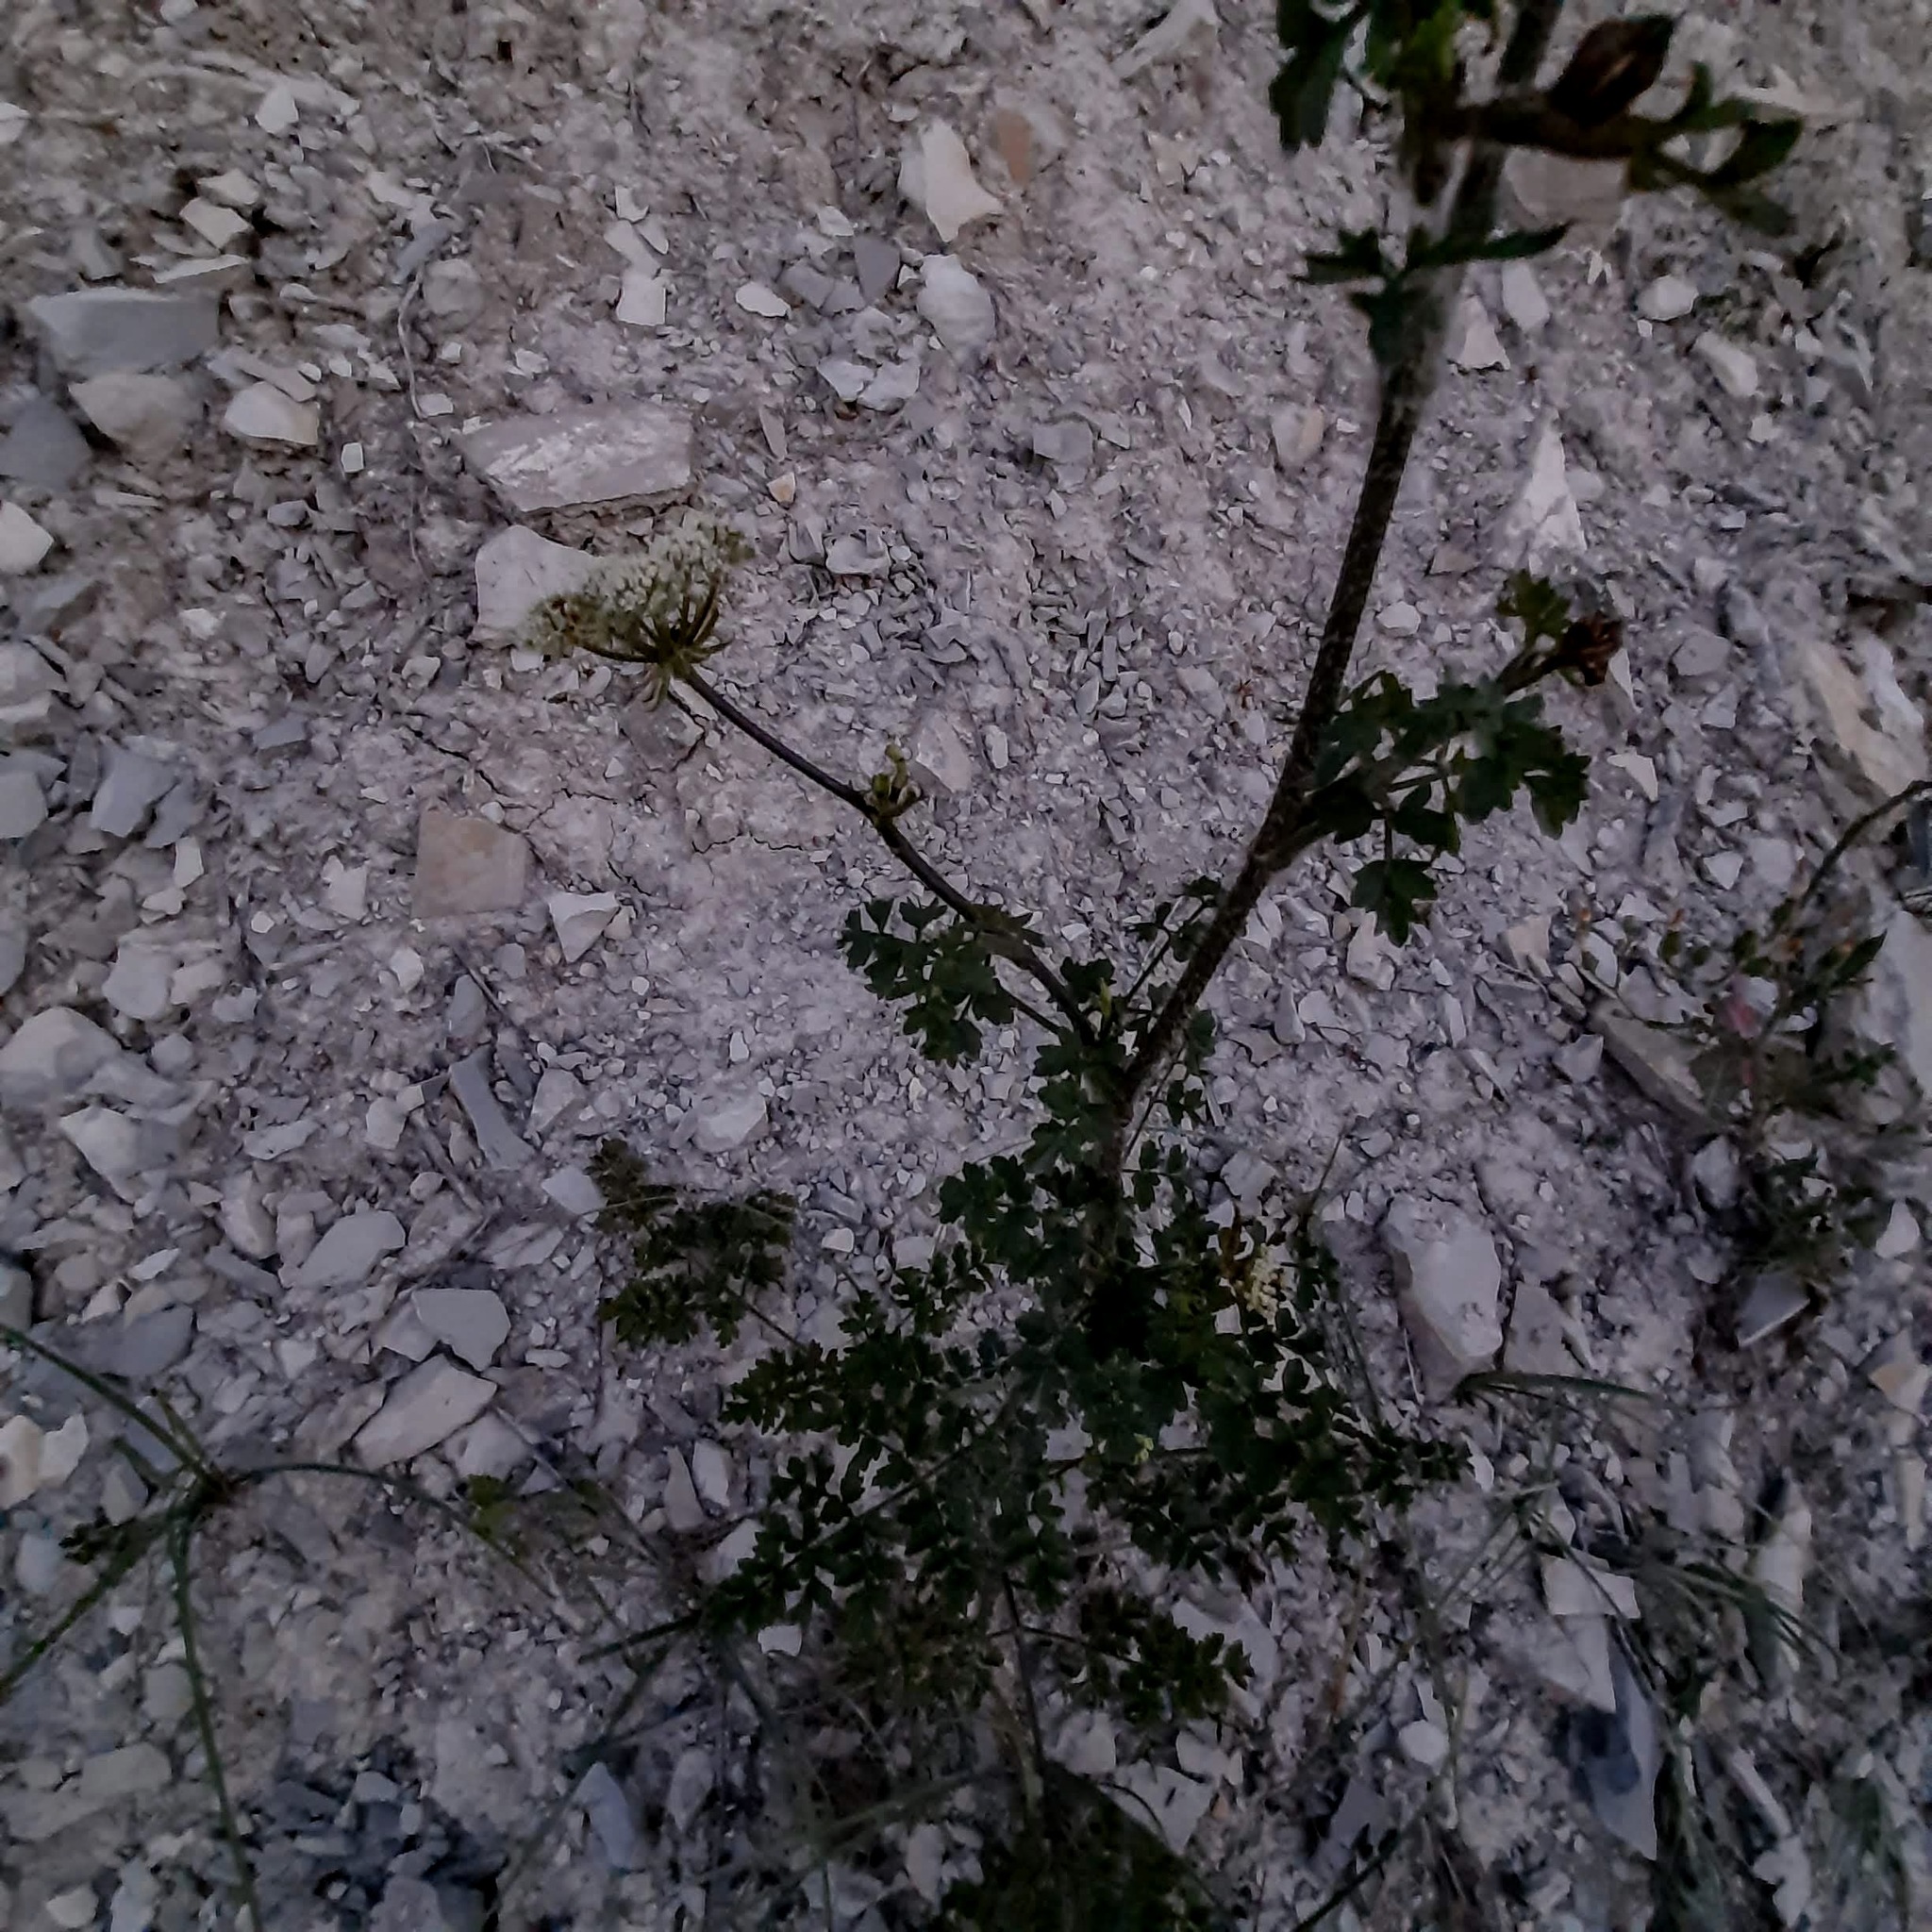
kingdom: Plantae
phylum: Tracheophyta
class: Magnoliopsida
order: Apiales
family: Apiaceae
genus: Silphiodaucus
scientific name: Silphiodaucus hispidus
